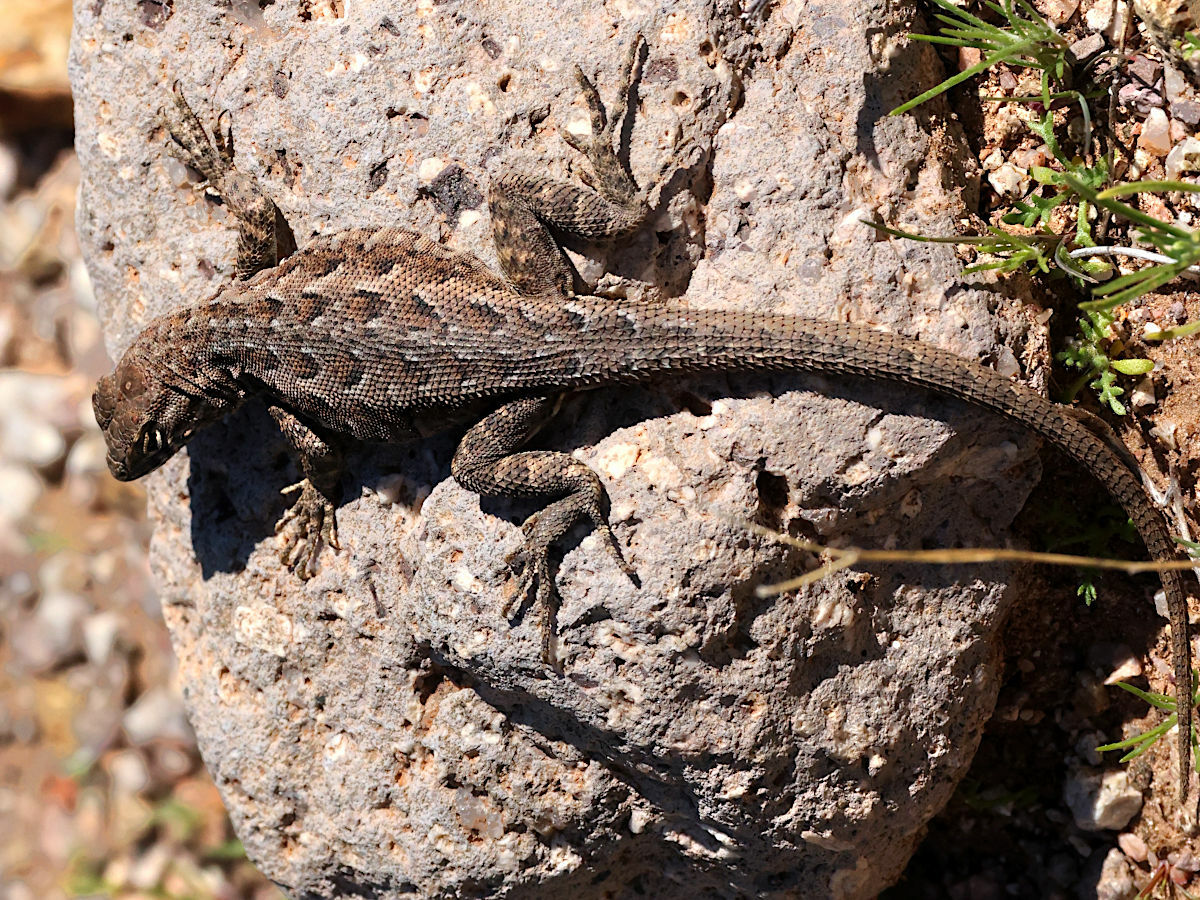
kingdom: Animalia
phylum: Chordata
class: Squamata
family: Phrynosomatidae
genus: Uta
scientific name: Uta stansburiana
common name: Side-blotched lizard
